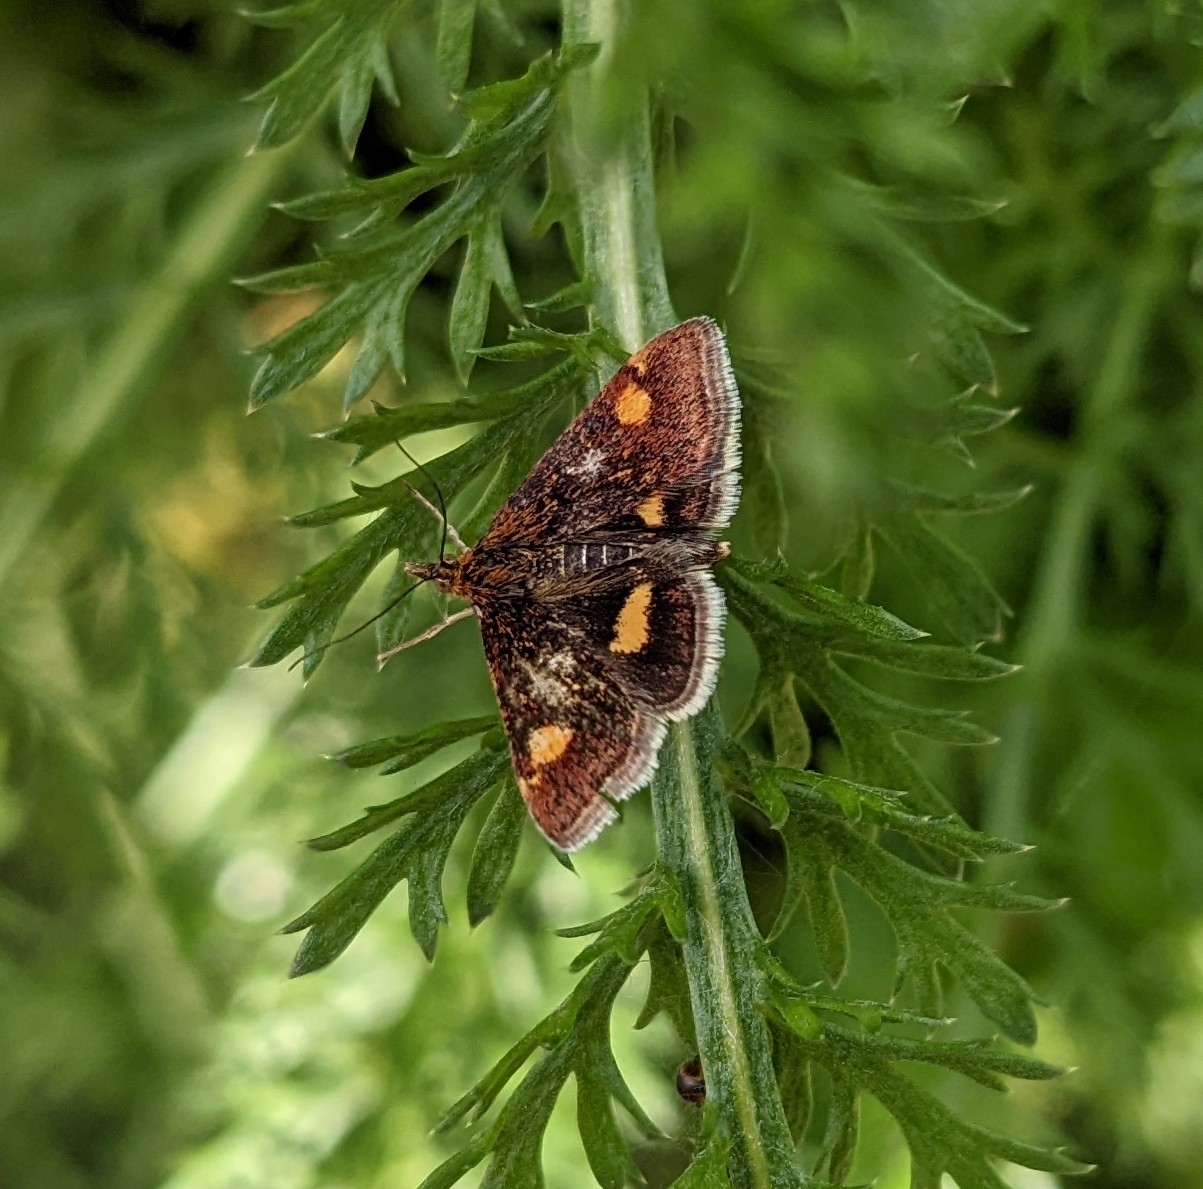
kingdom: Animalia
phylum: Arthropoda
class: Insecta
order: Lepidoptera
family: Crambidae
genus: Pyrausta
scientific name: Pyrausta aurata
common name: Small purple & gold
